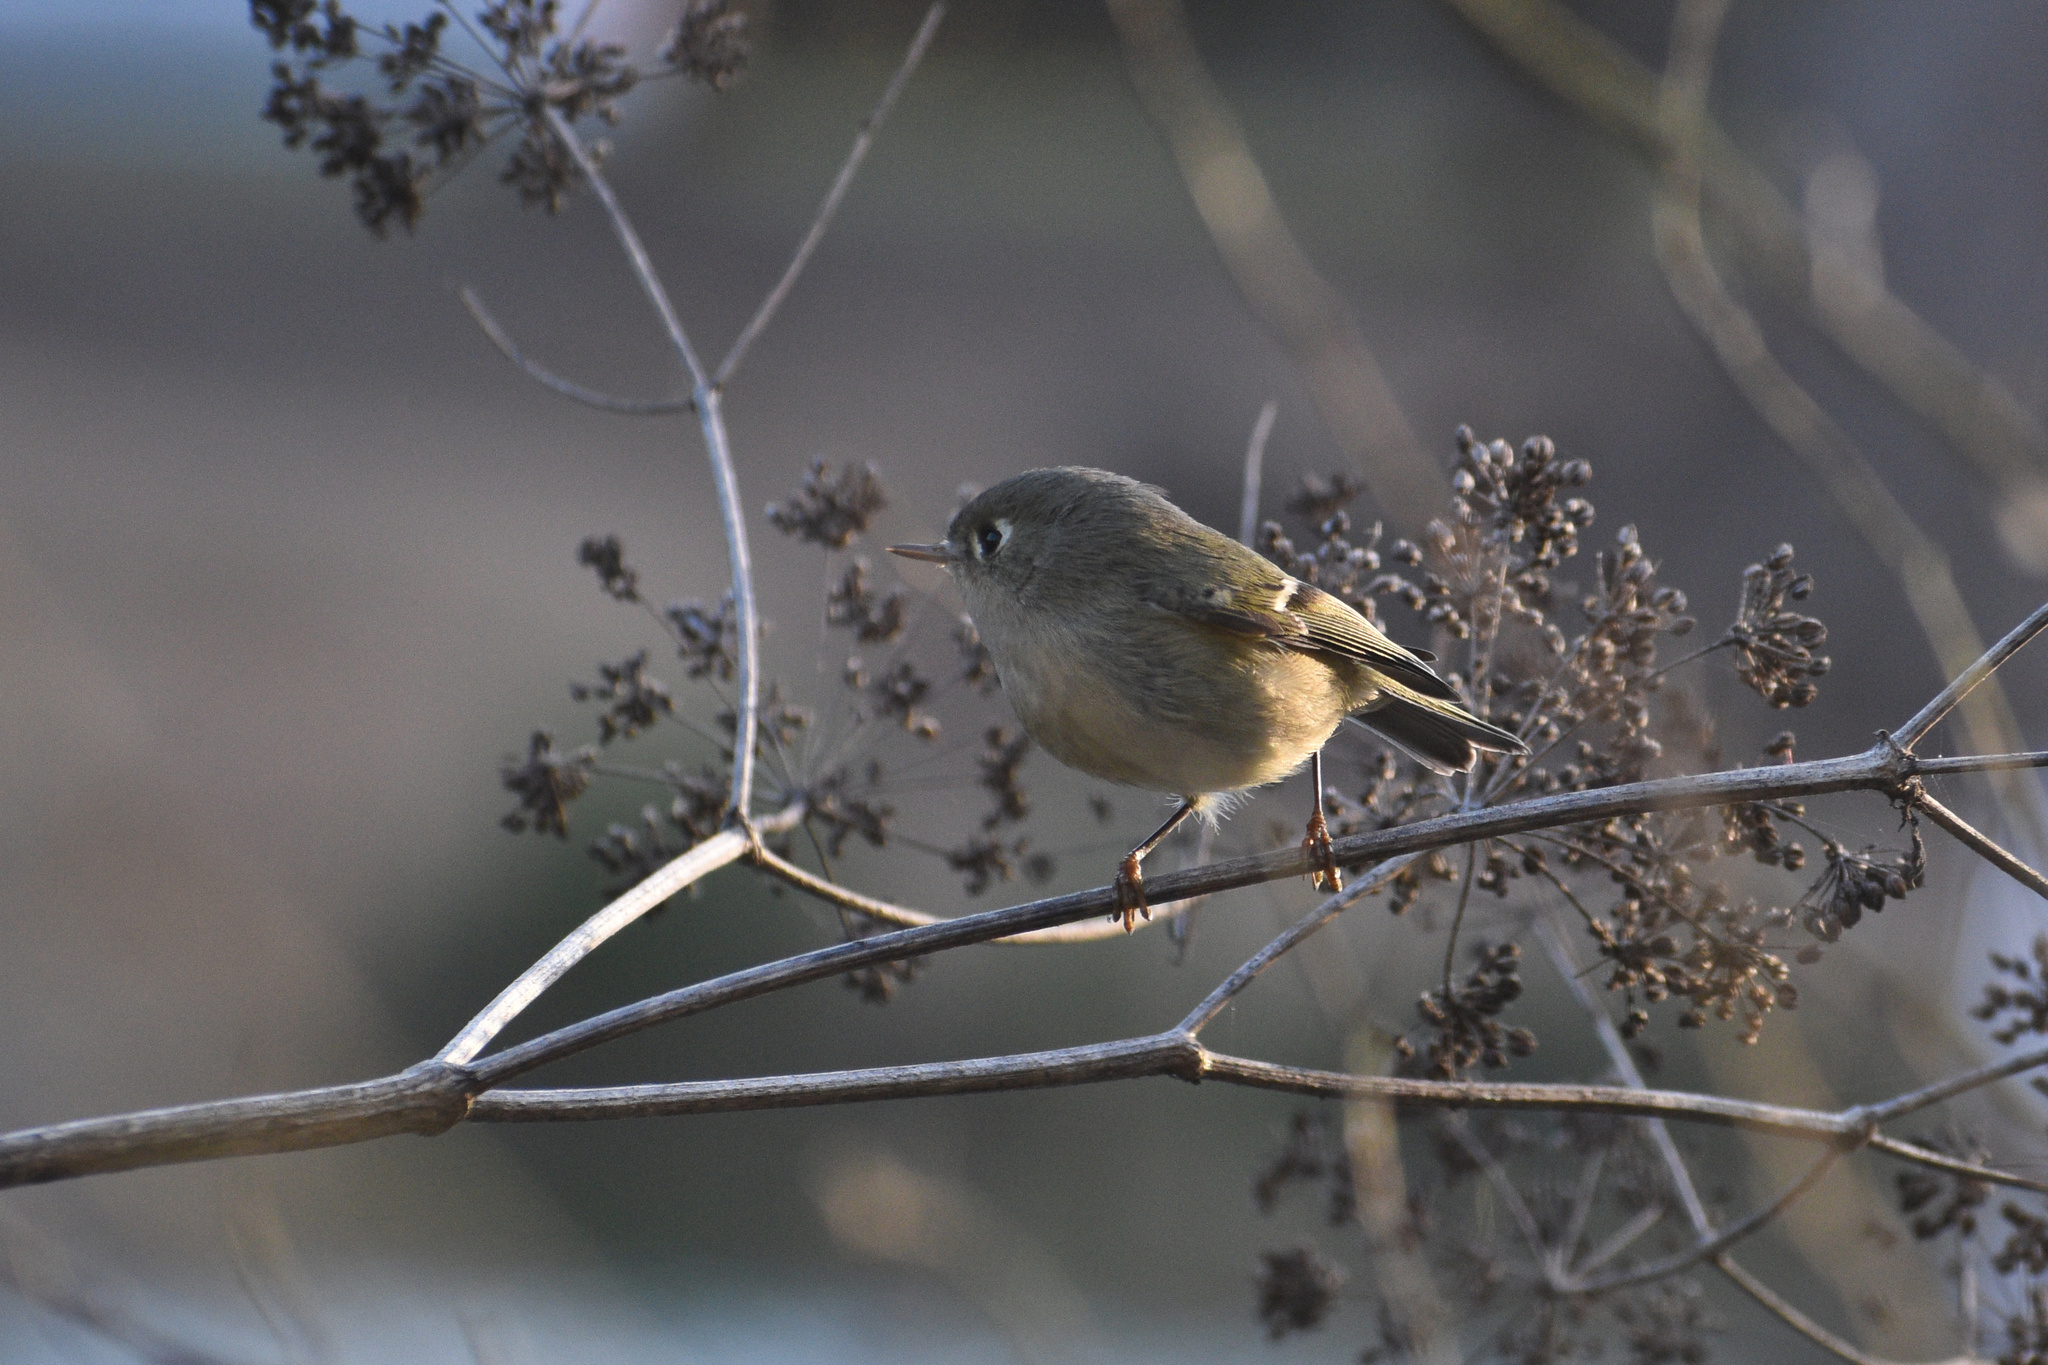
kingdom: Animalia
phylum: Chordata
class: Aves
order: Passeriformes
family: Regulidae
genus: Regulus
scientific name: Regulus calendula
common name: Ruby-crowned kinglet
